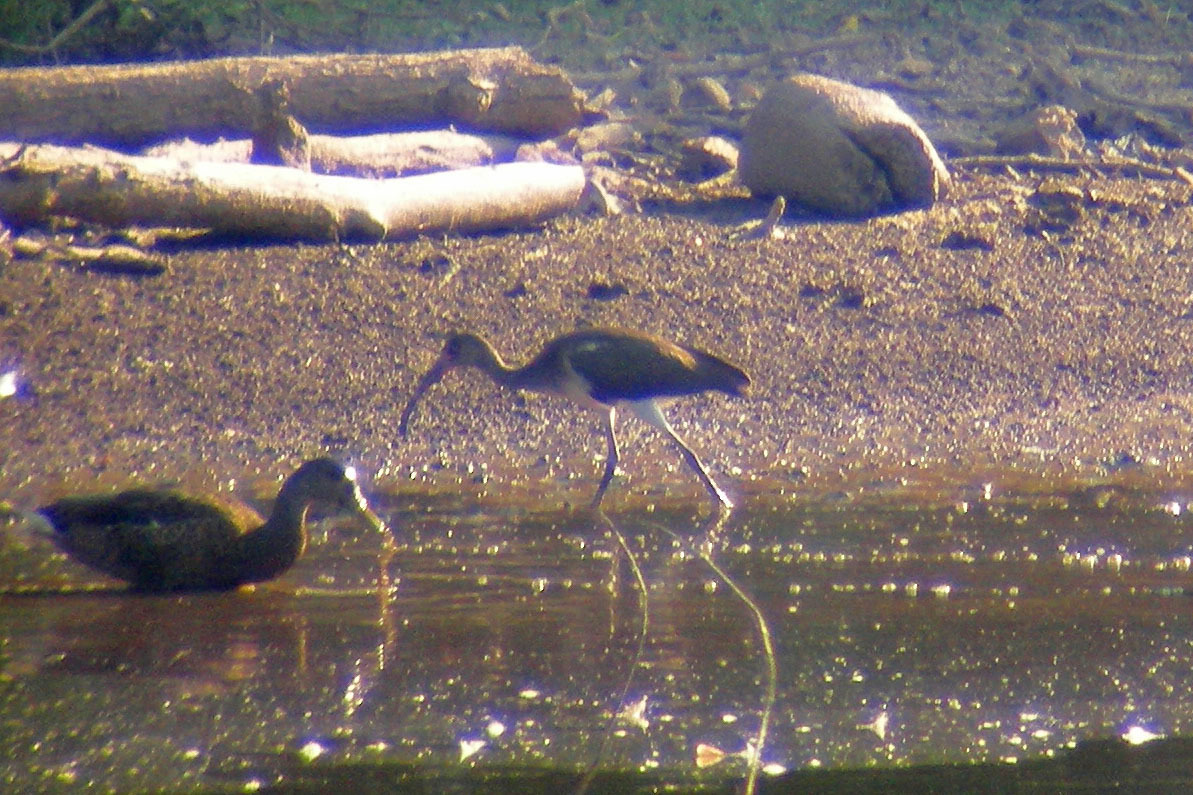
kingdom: Animalia
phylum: Chordata
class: Aves
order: Pelecaniformes
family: Threskiornithidae
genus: Eudocimus
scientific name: Eudocimus albus
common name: White ibis
